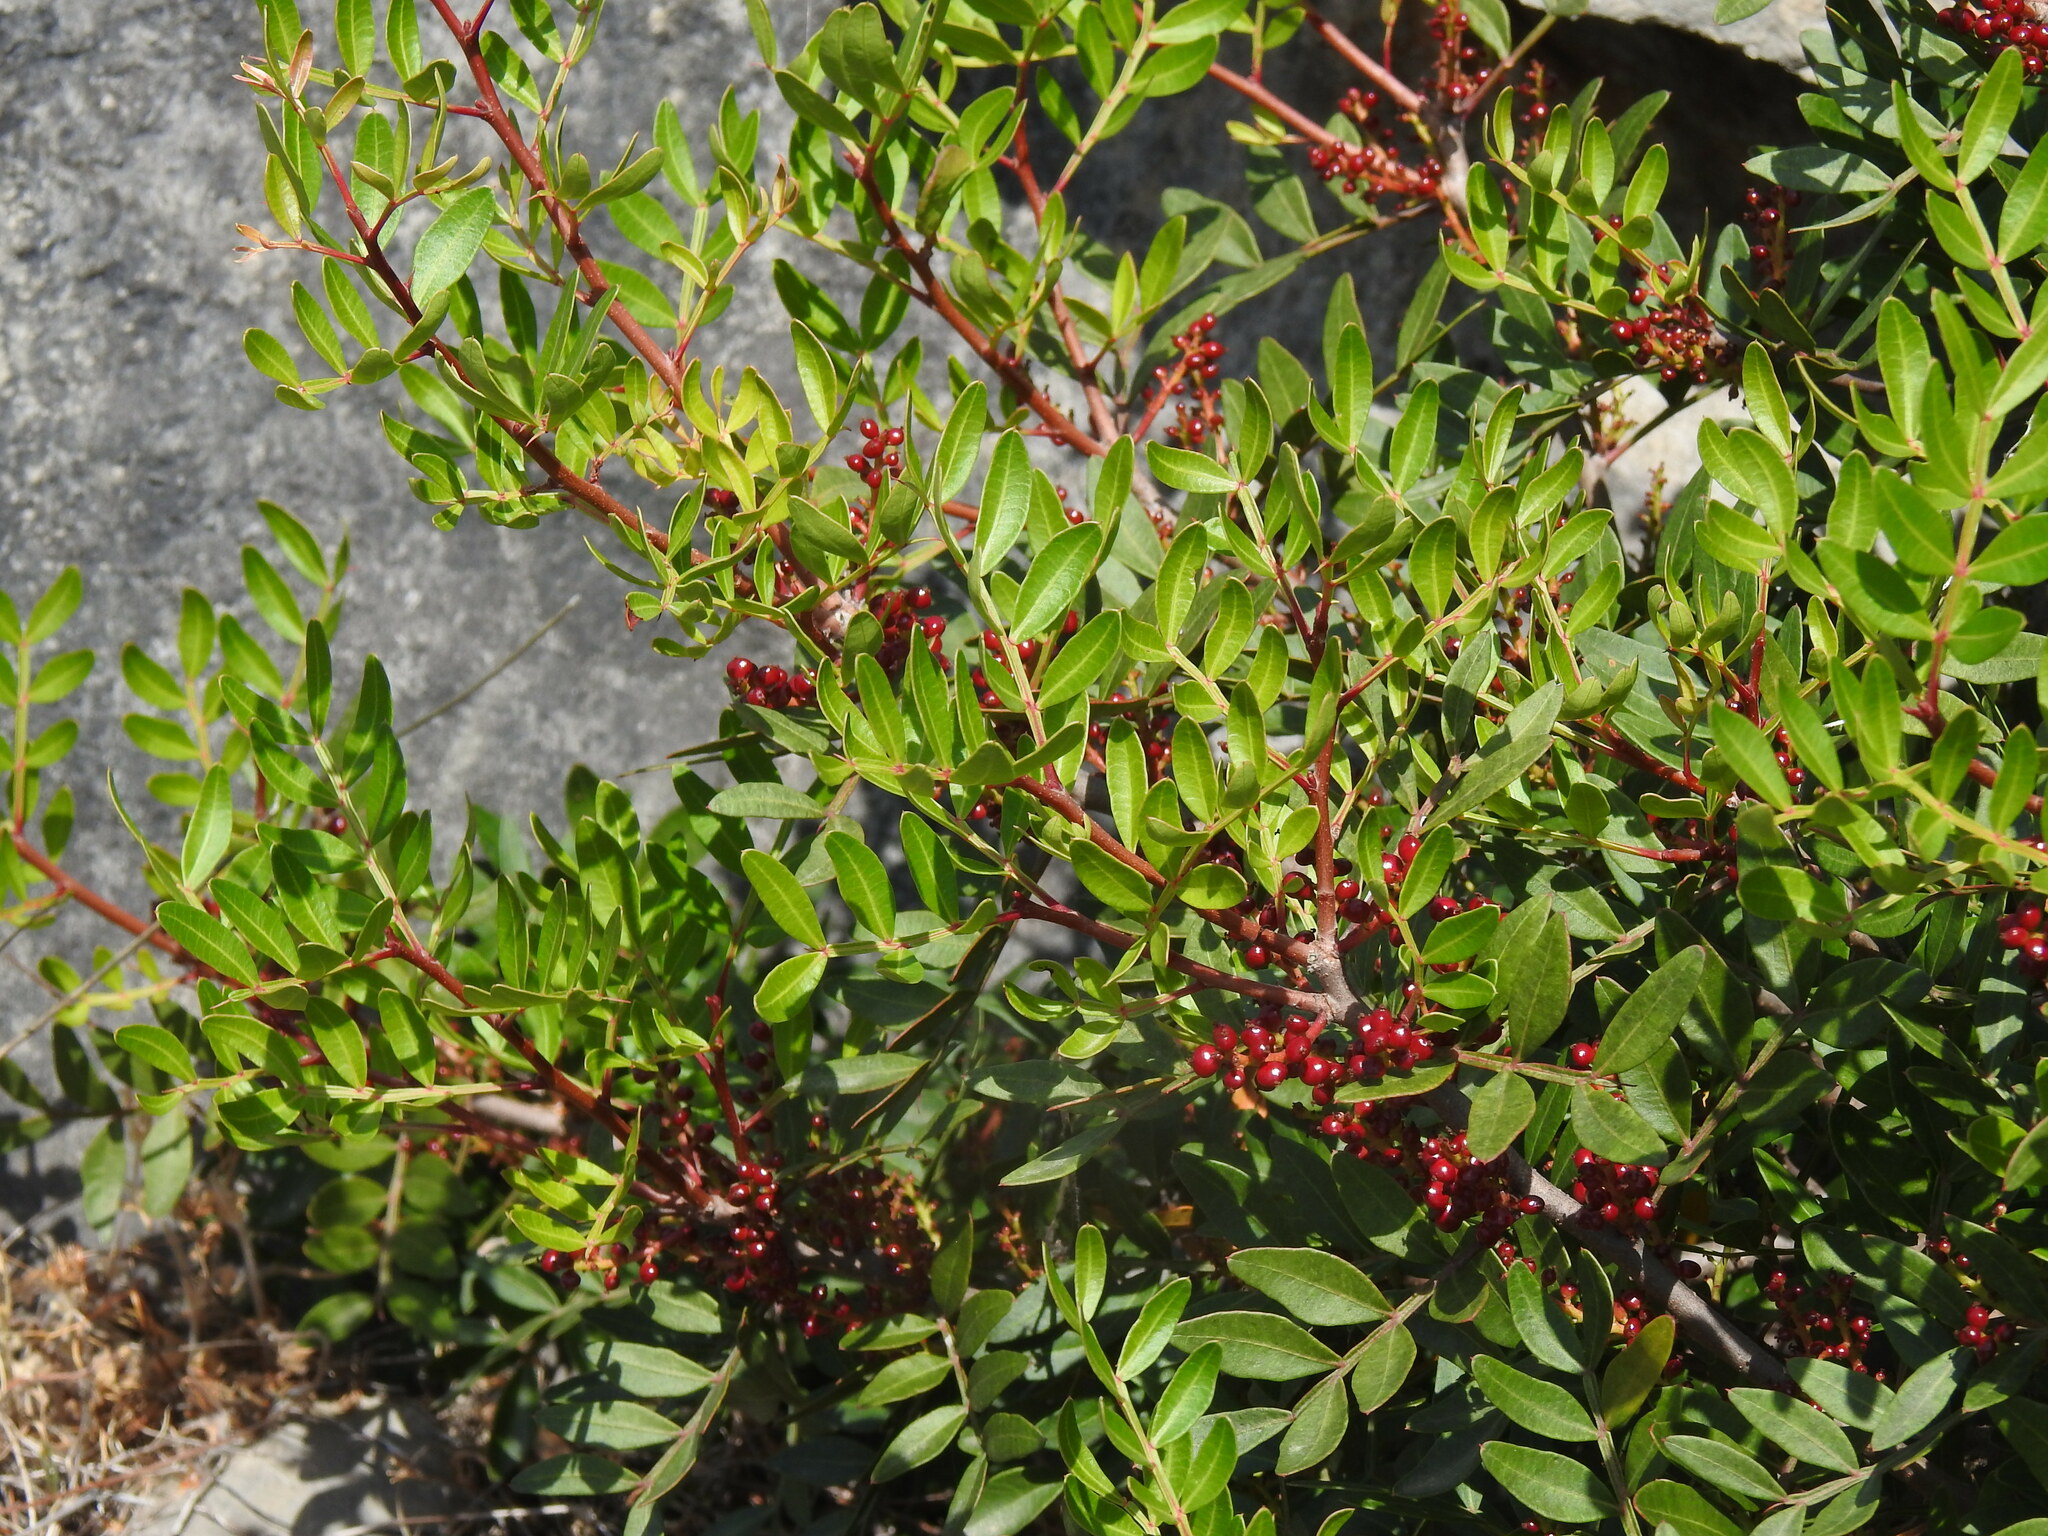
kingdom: Plantae
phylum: Tracheophyta
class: Magnoliopsida
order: Sapindales
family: Anacardiaceae
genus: Pistacia
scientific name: Pistacia lentiscus
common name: Lentisk
